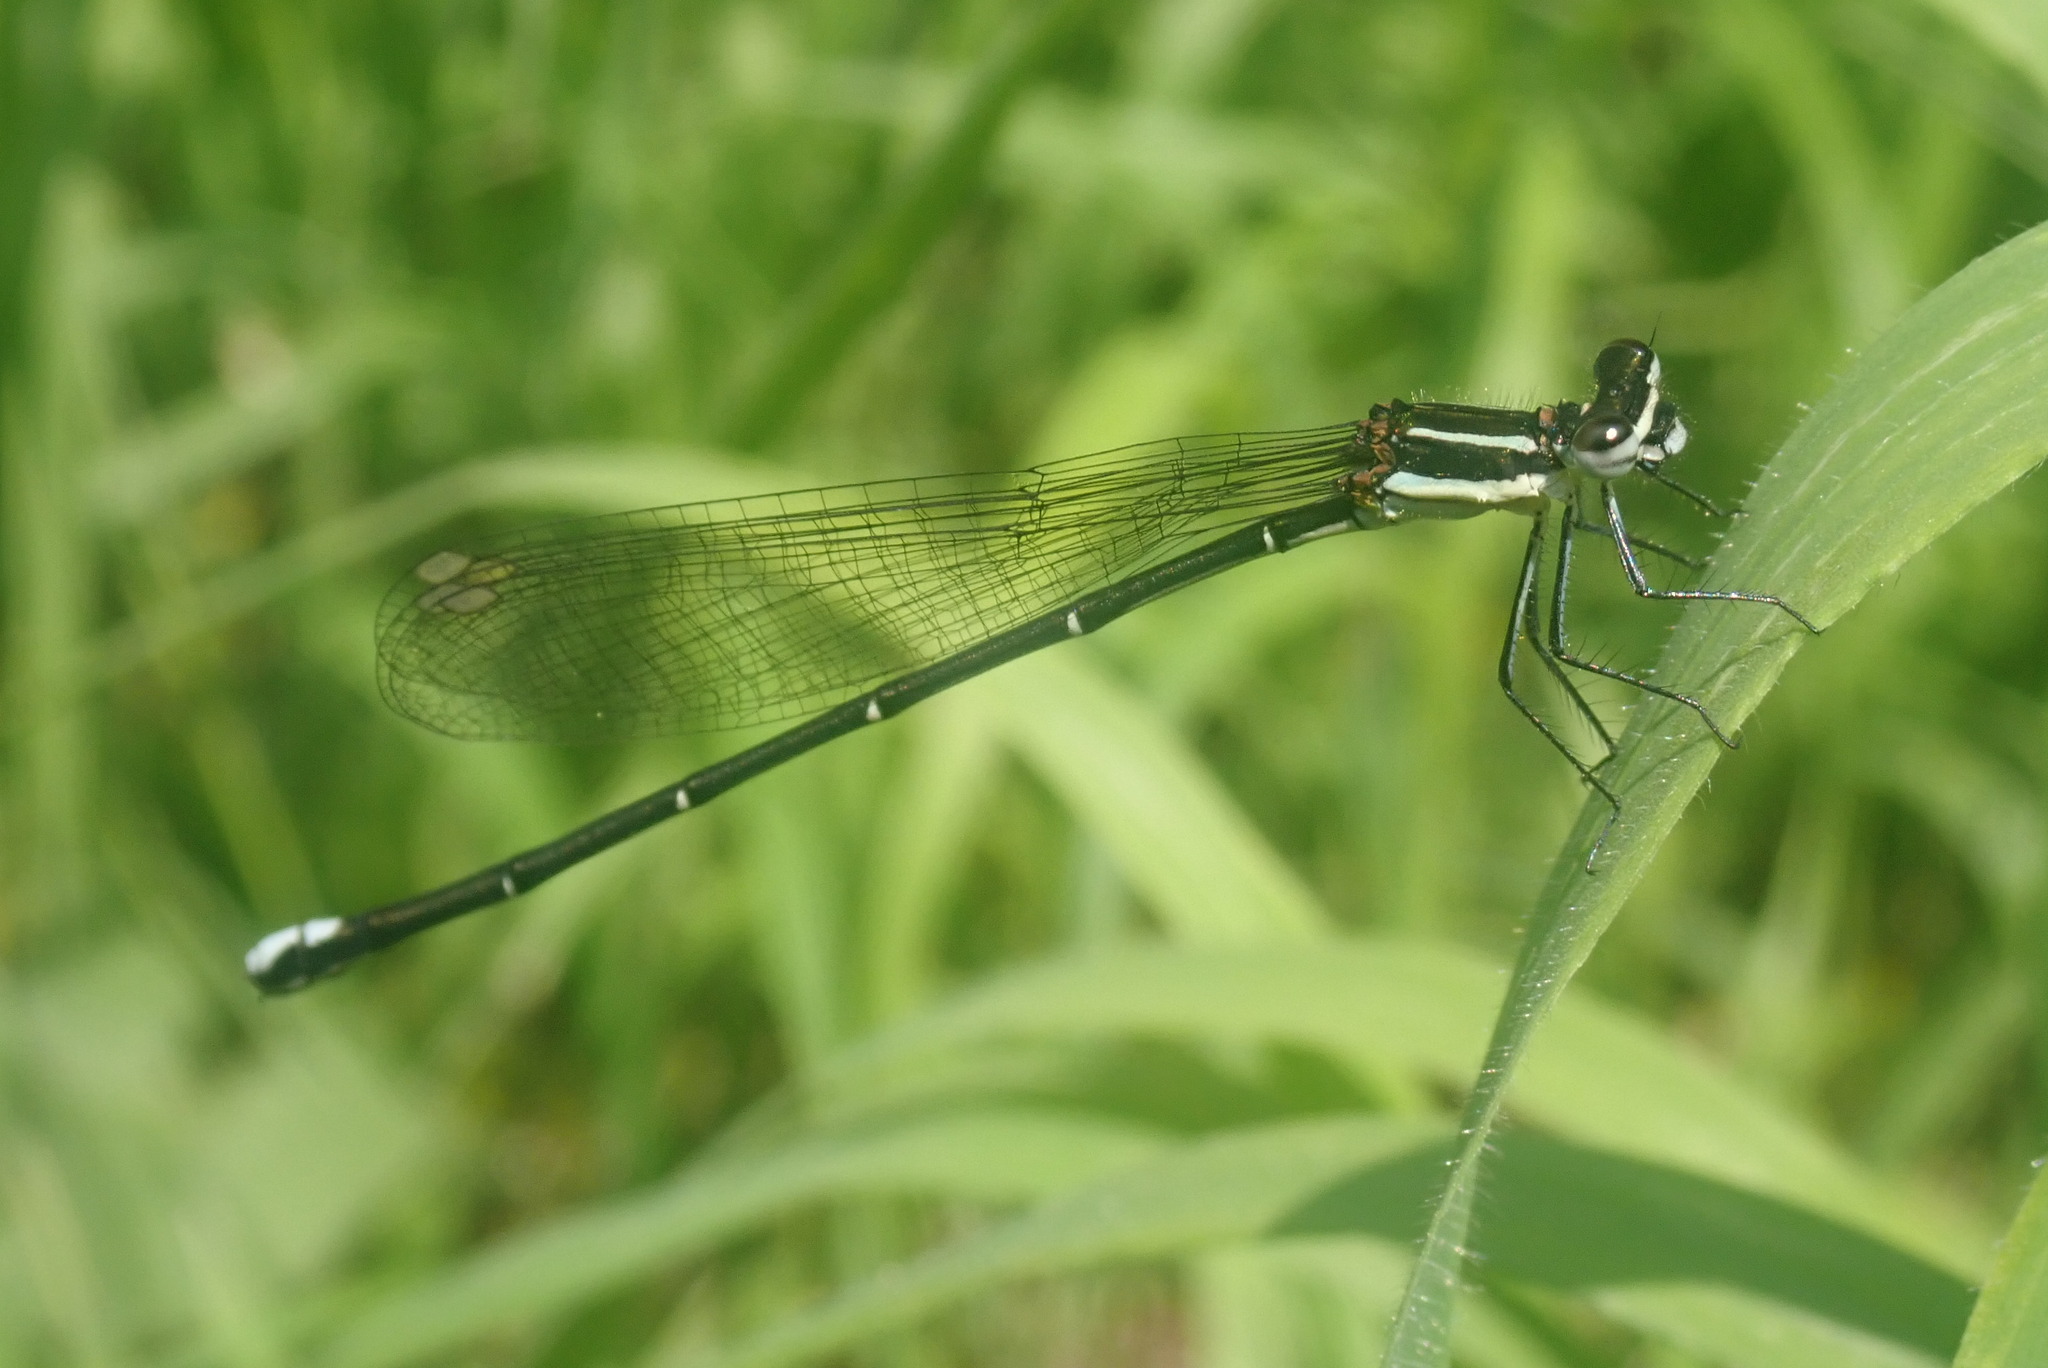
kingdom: Animalia
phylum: Arthropoda
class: Insecta
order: Odonata
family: Platycnemididae
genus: Allocnemis
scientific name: Allocnemis leucosticta
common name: Goldtail
